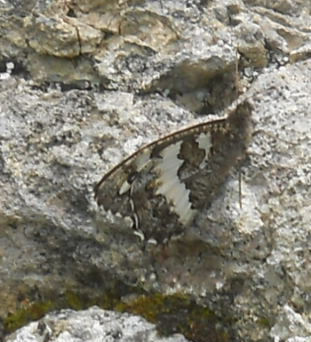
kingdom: Animalia
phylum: Arthropoda
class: Insecta
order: Lepidoptera
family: Lycaenidae
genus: Loweia
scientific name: Loweia tityrus
